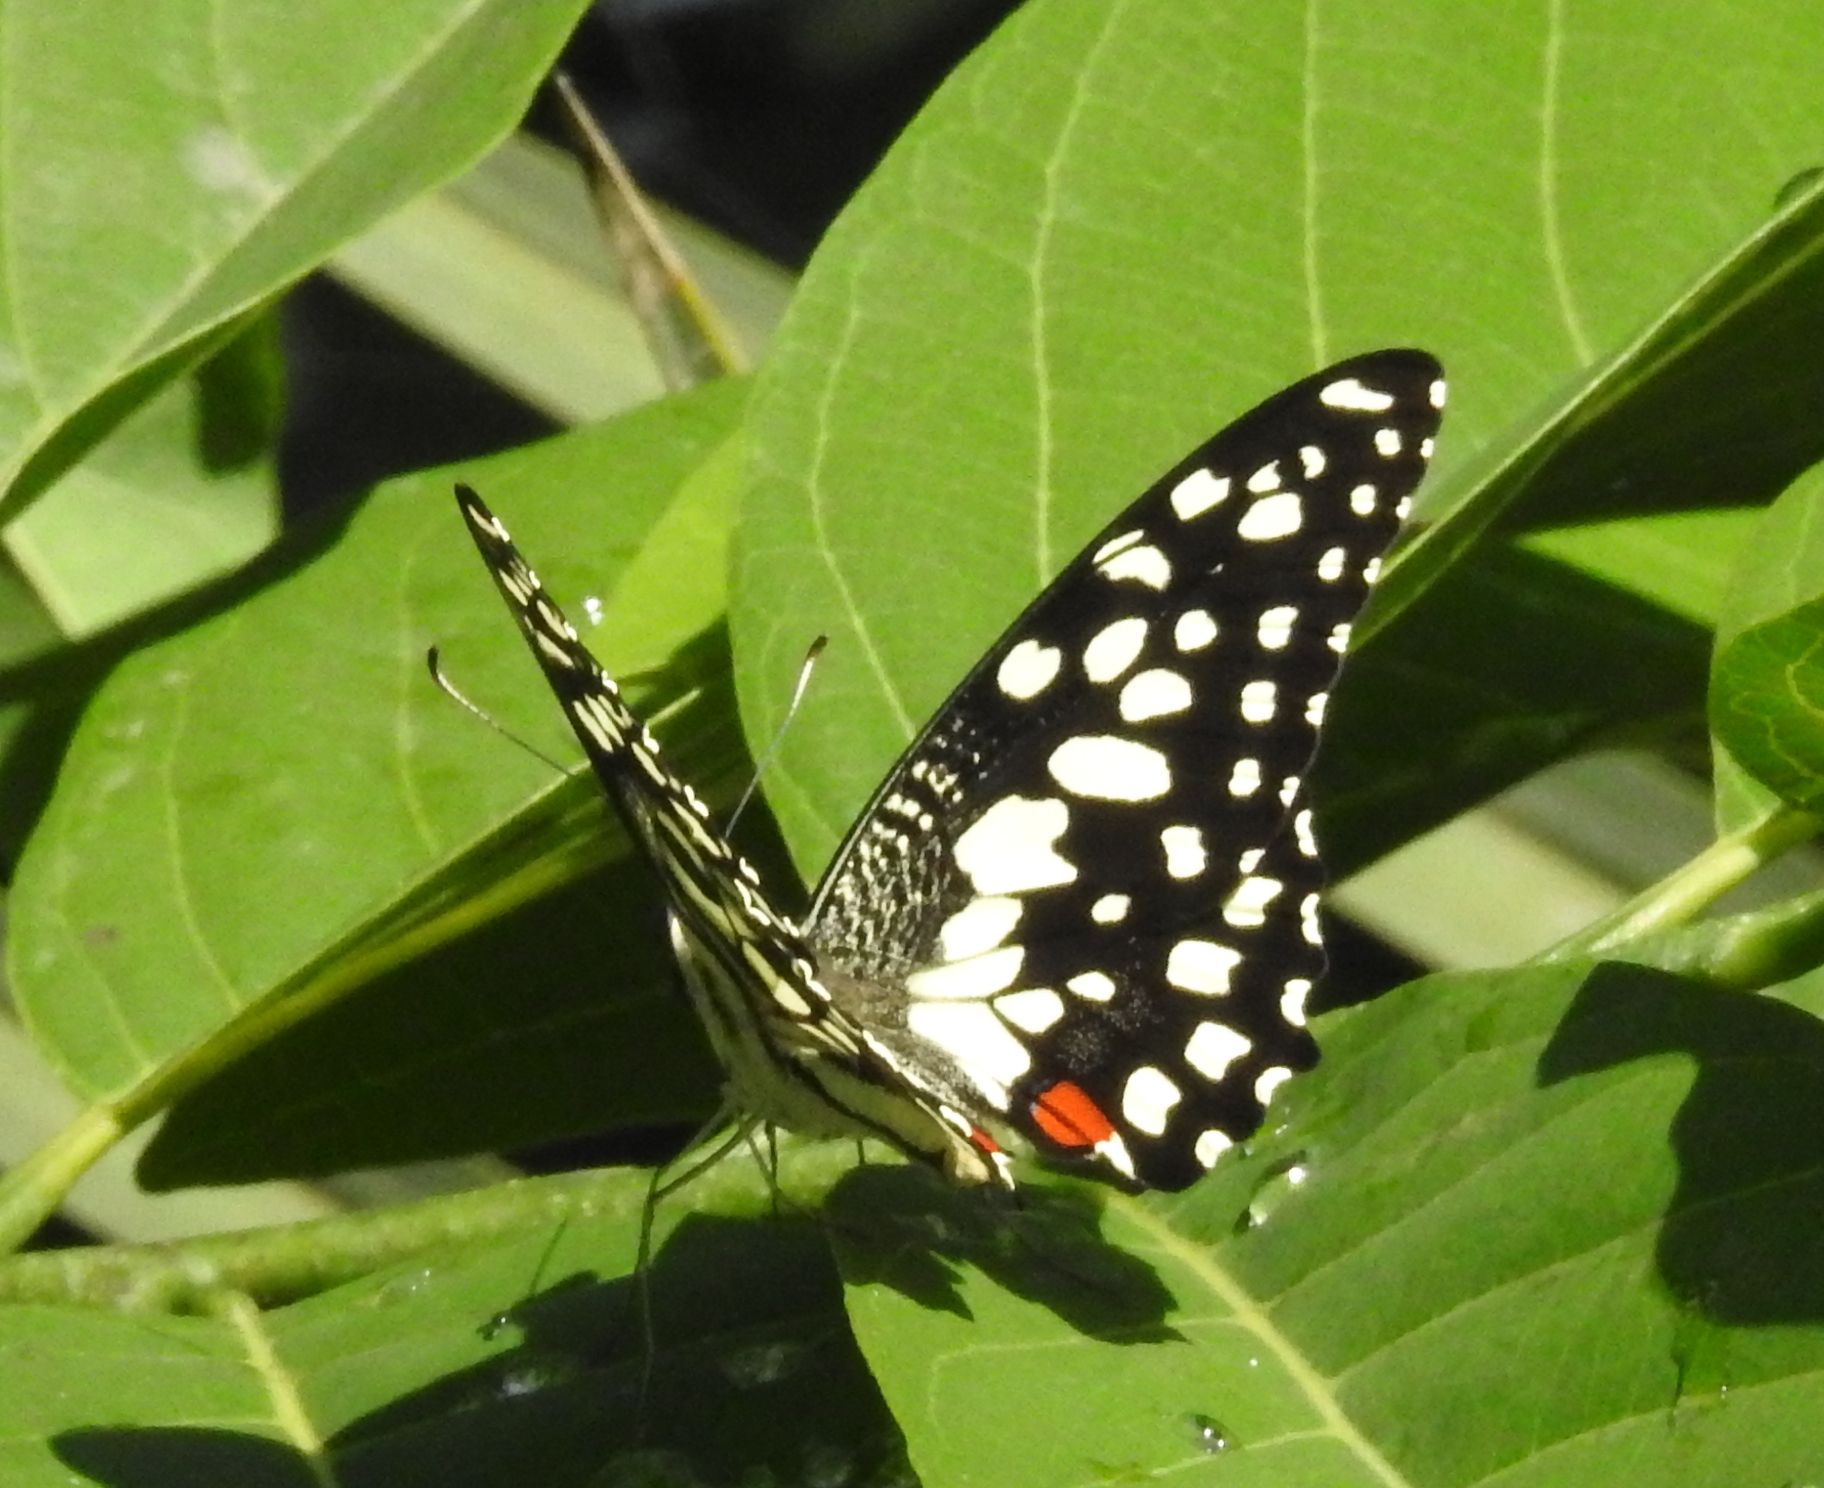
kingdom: Animalia
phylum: Arthropoda
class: Insecta
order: Lepidoptera
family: Papilionidae
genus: Papilio
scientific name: Papilio demoleus
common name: Lime butterfly
